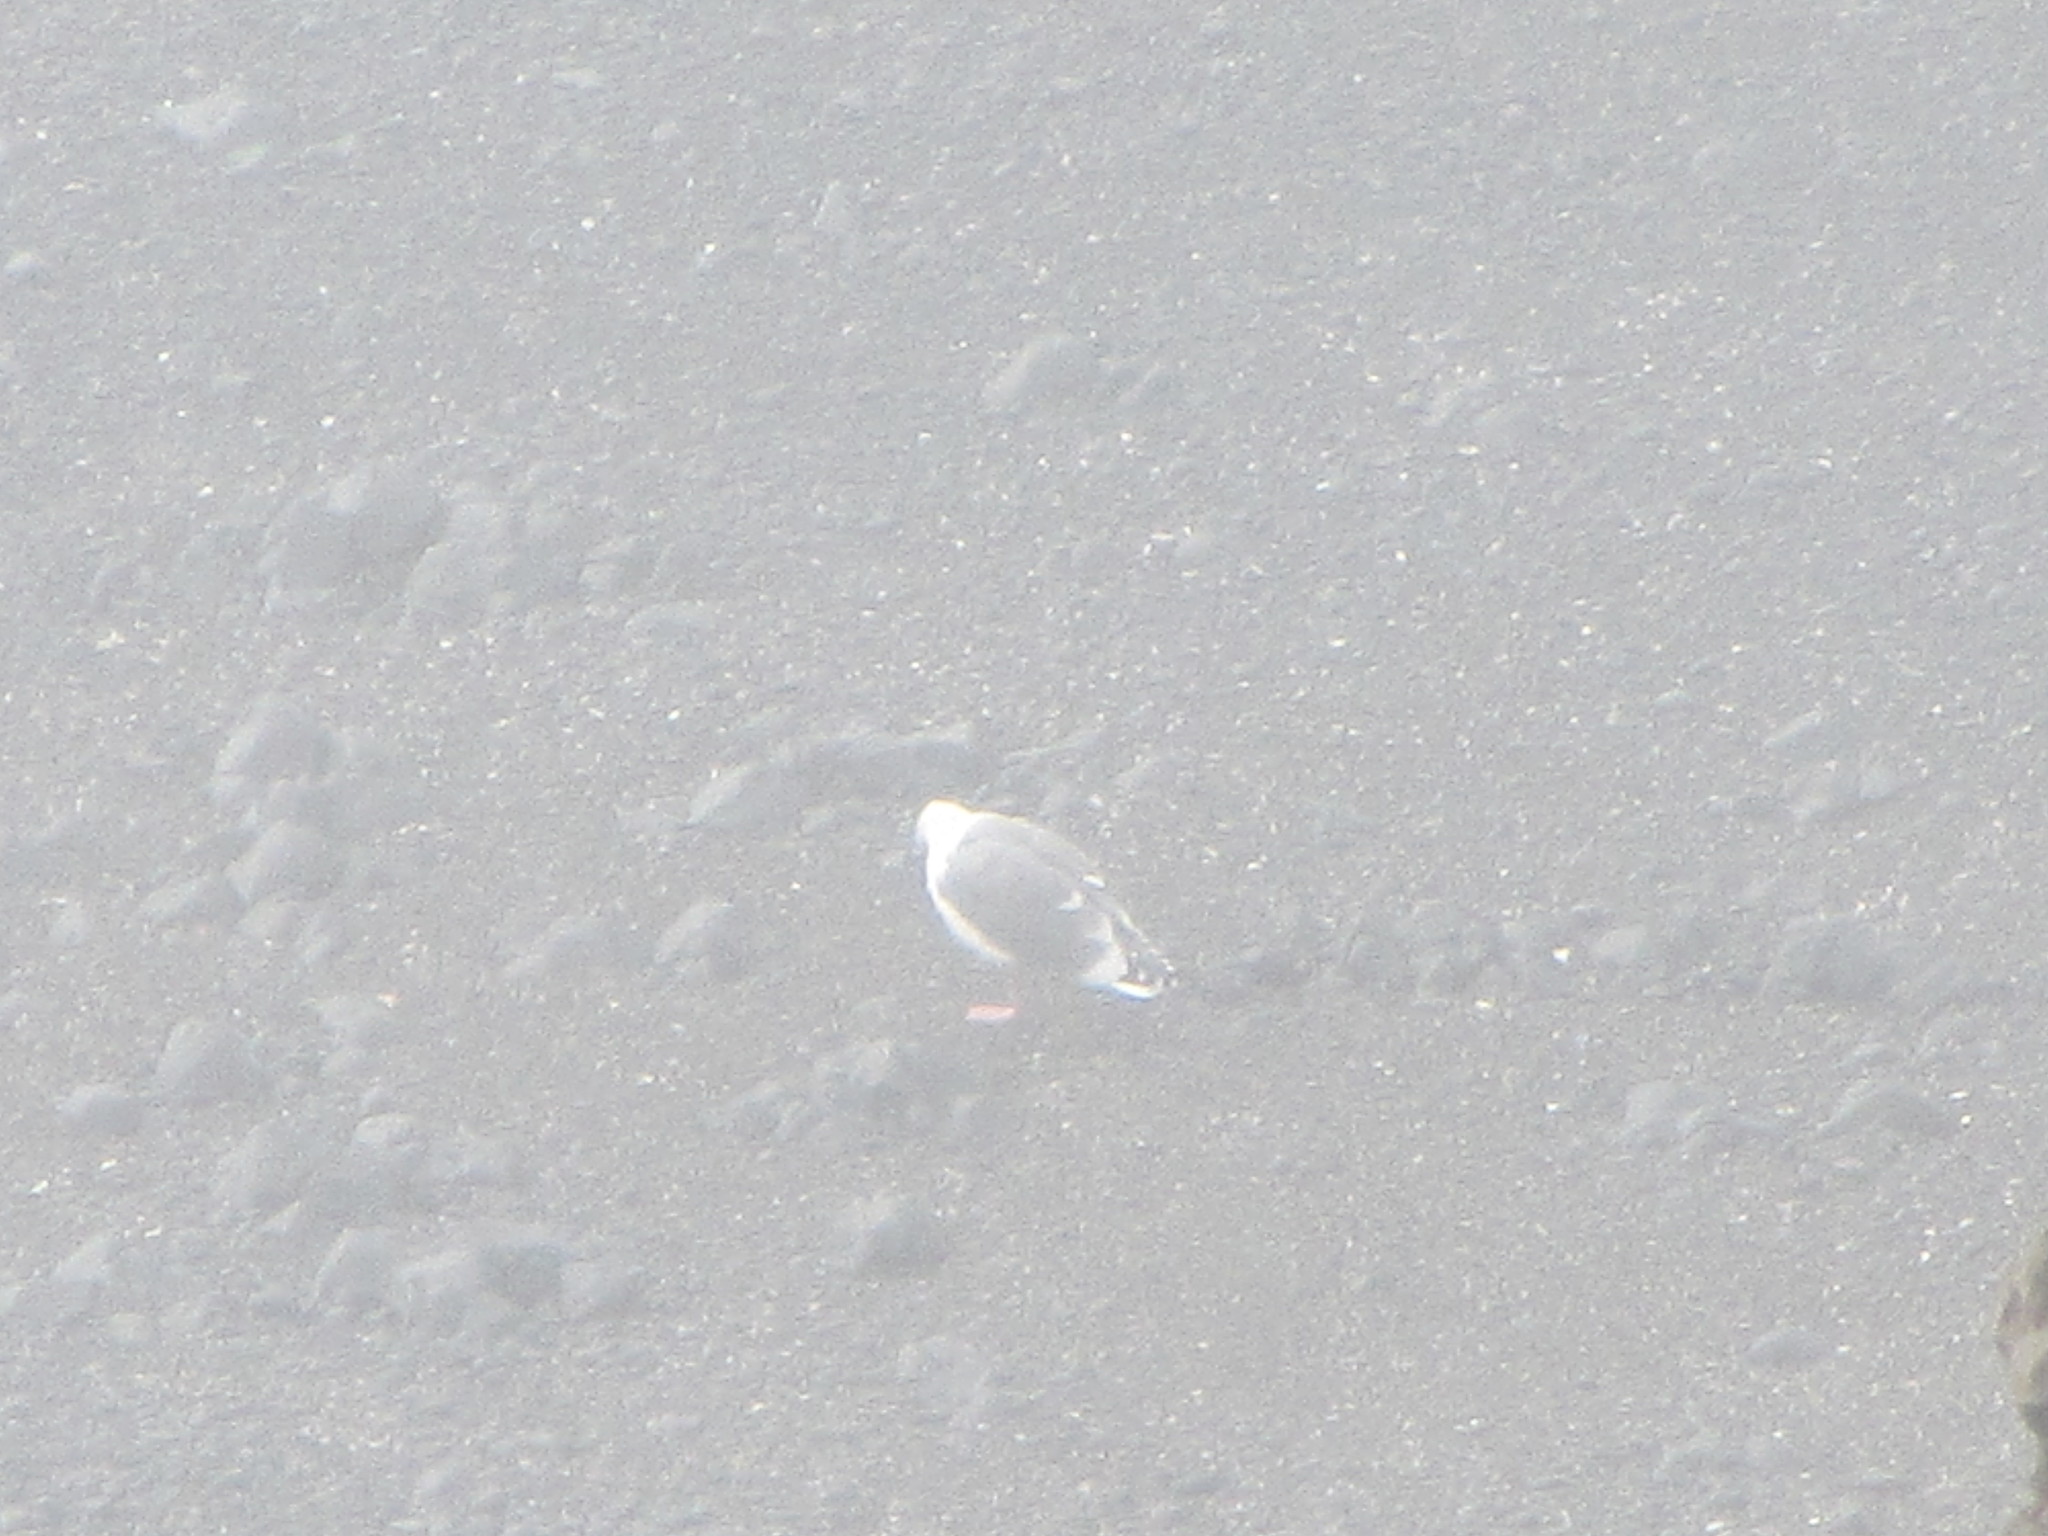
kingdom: Animalia
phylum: Chordata
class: Aves
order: Charadriiformes
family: Laridae
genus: Larus
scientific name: Larus occidentalis
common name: Western gull
